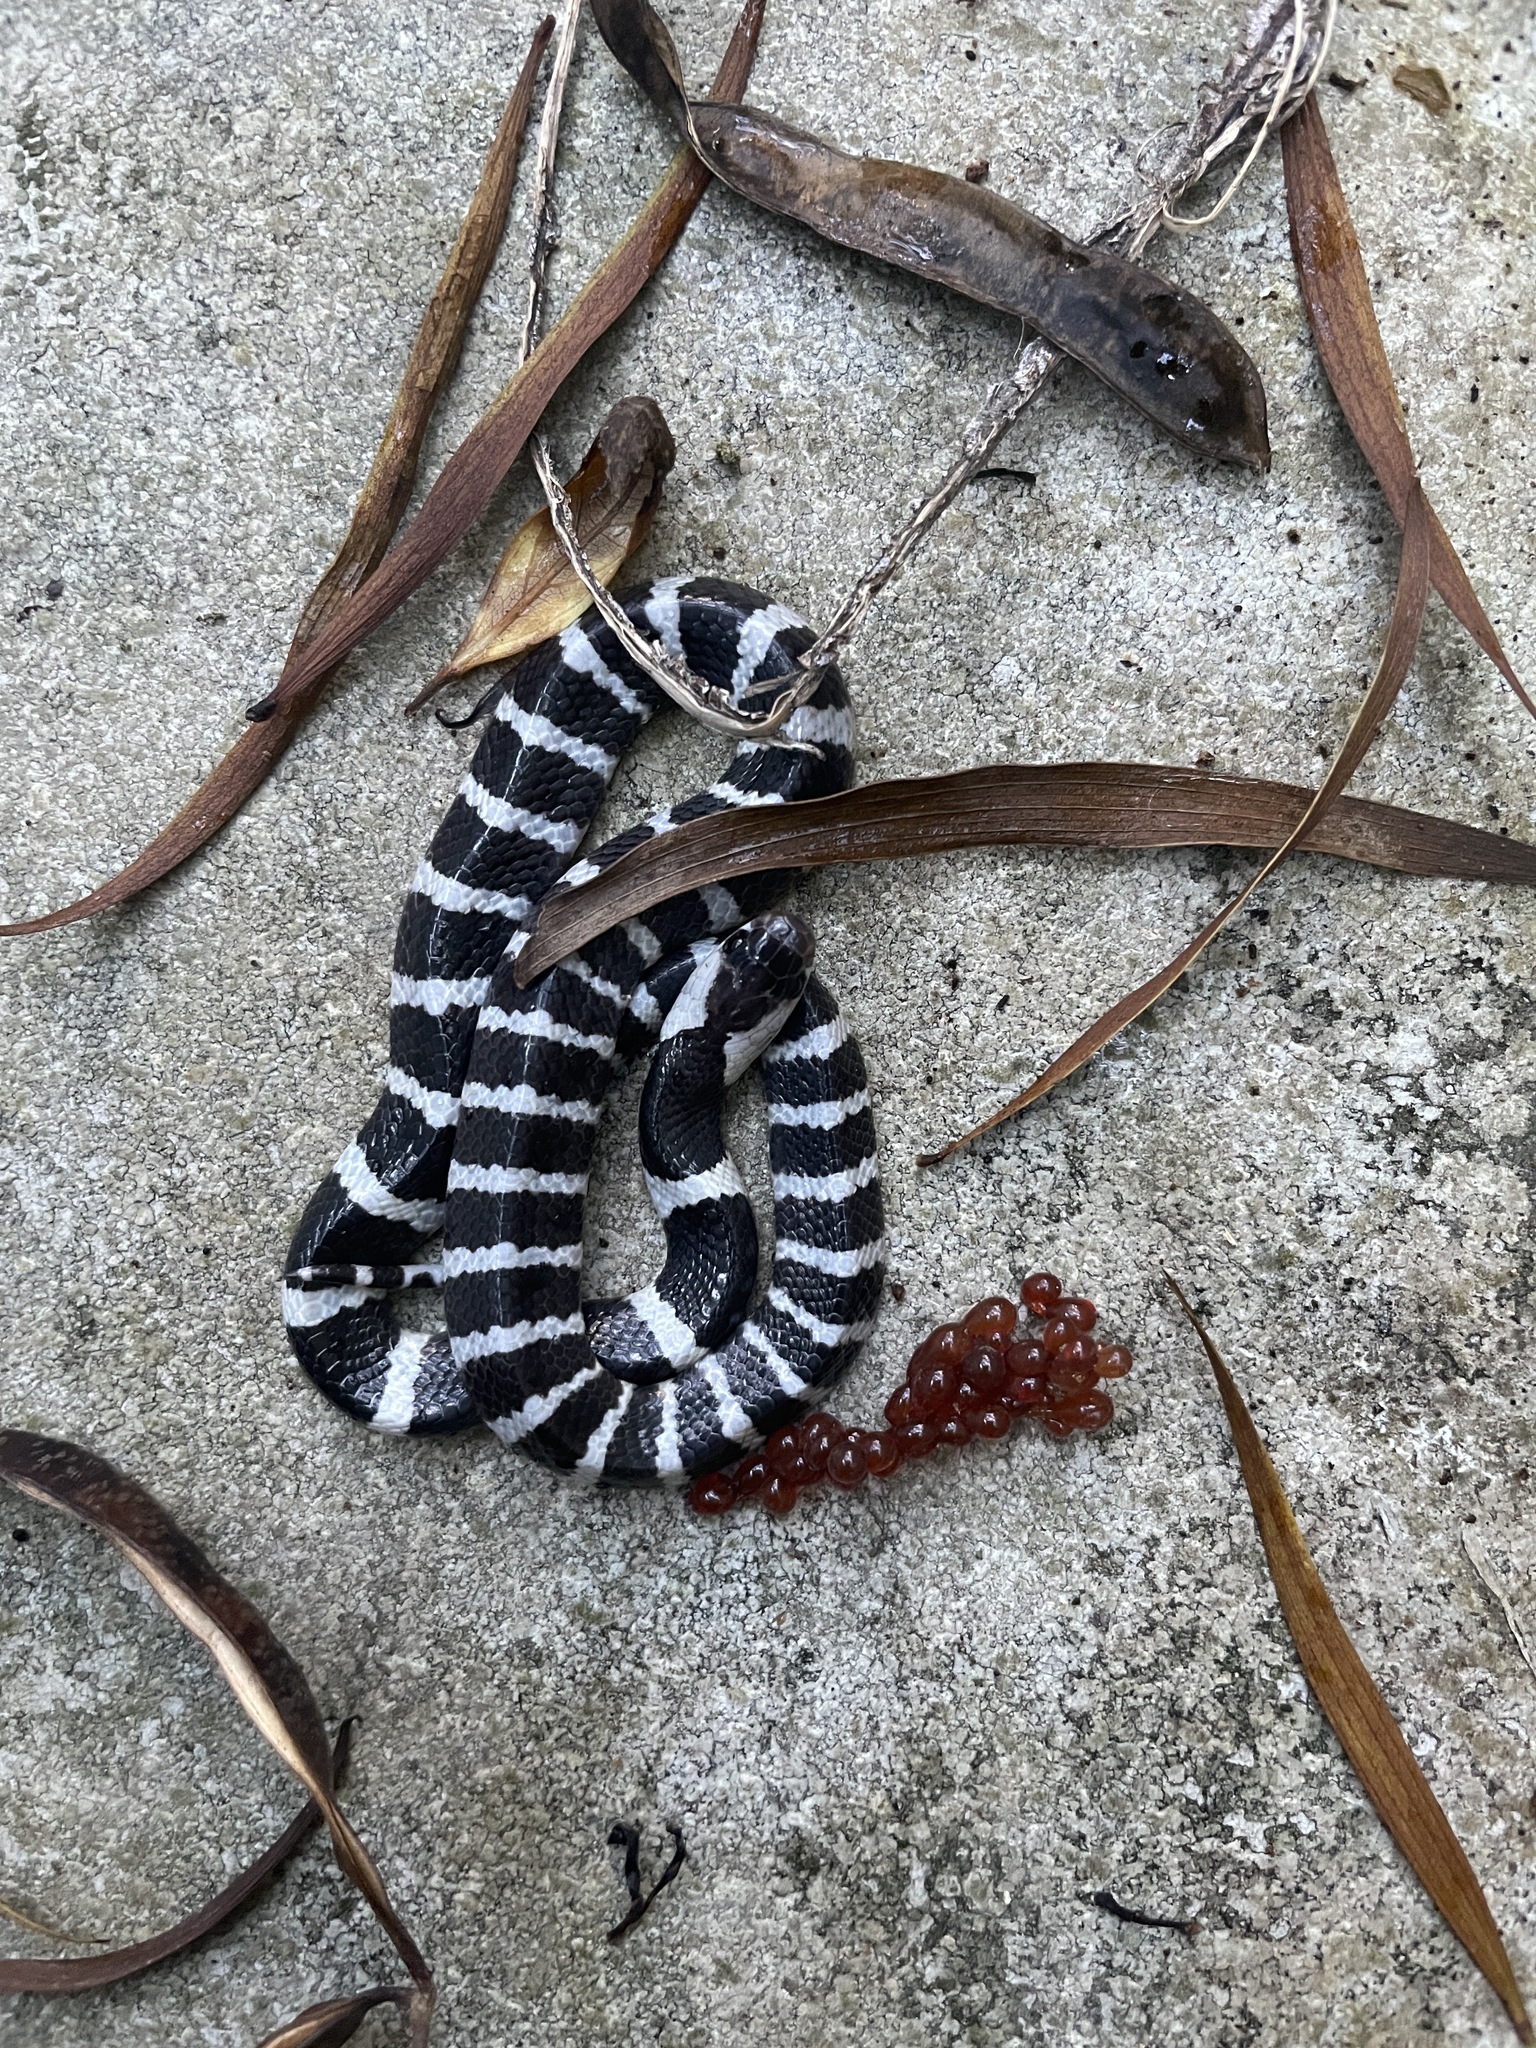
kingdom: Animalia
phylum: Chordata
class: Squamata
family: Elapidae
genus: Bungarus
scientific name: Bungarus multicinctus
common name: Many-banded krait
